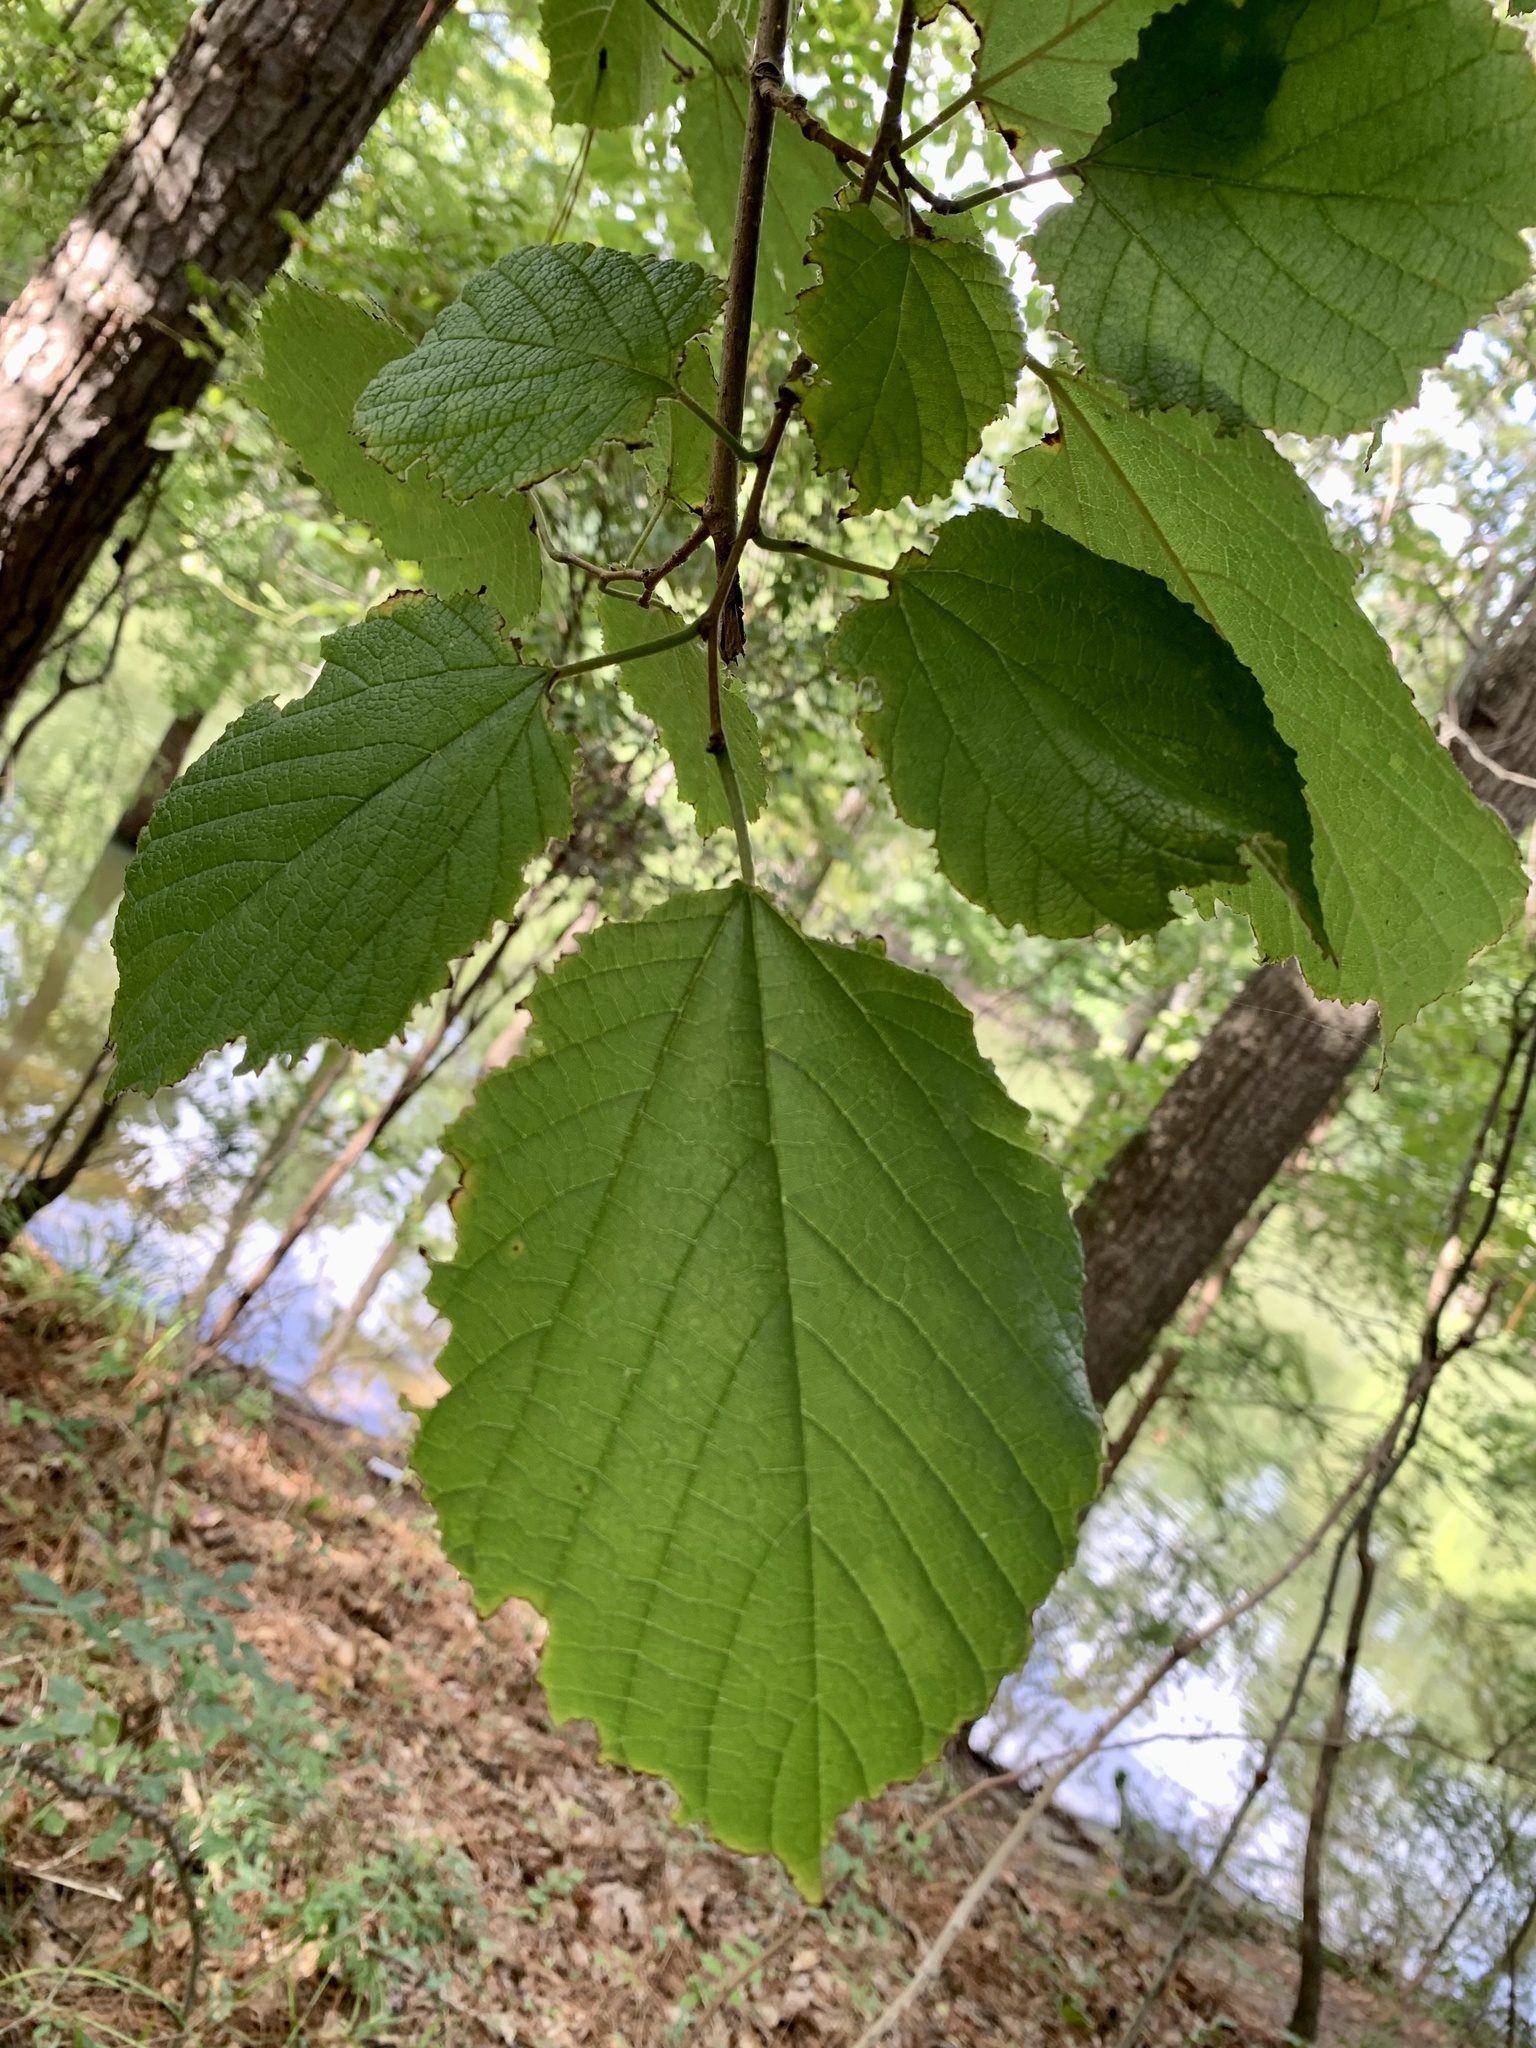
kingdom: Plantae
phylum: Tracheophyta
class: Magnoliopsida
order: Rosales
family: Moraceae
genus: Morus
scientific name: Morus rubra
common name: Red mulberry
